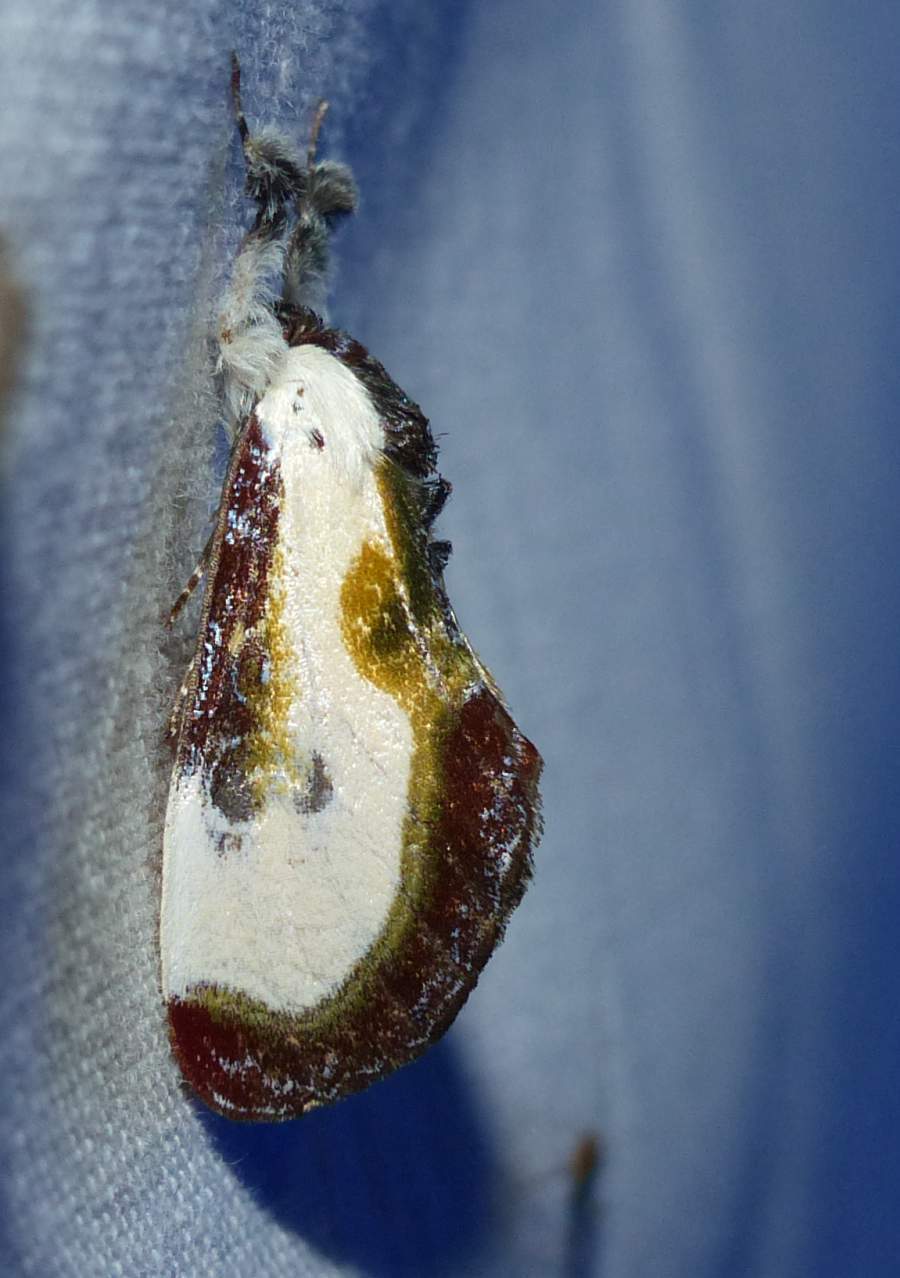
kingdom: Animalia
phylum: Arthropoda
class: Insecta
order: Lepidoptera
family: Noctuidae
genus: Eudryas
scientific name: Eudryas grata
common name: Beautiful wood-nymph
